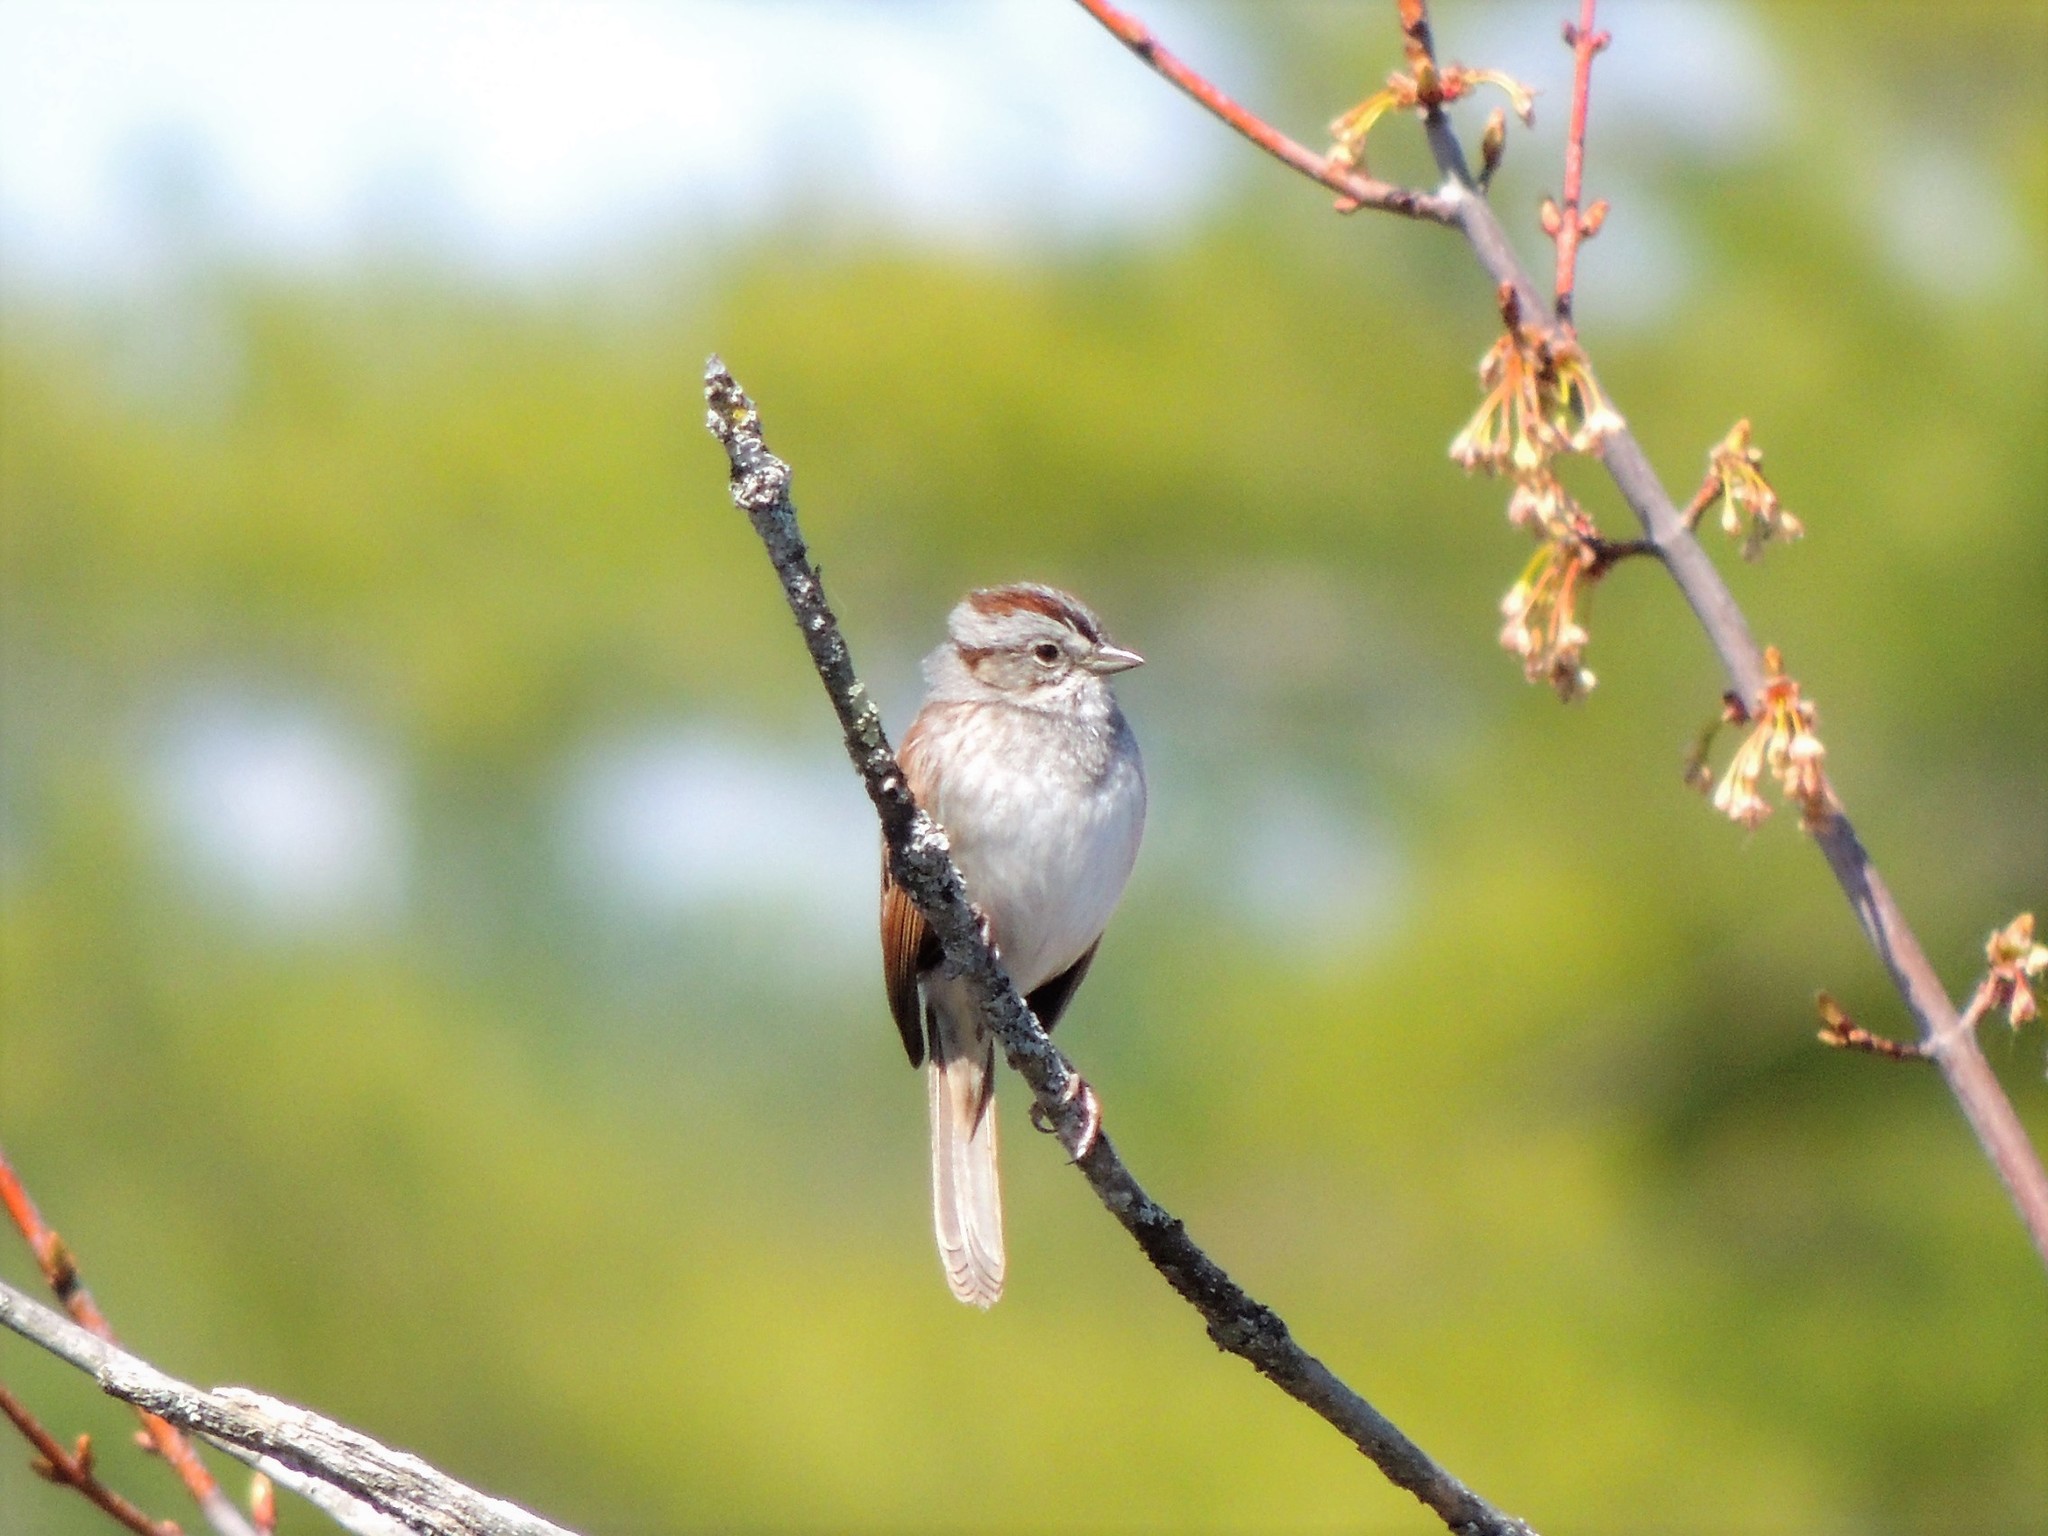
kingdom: Animalia
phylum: Chordata
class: Aves
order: Passeriformes
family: Passerellidae
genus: Melospiza
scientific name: Melospiza georgiana
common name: Swamp sparrow
